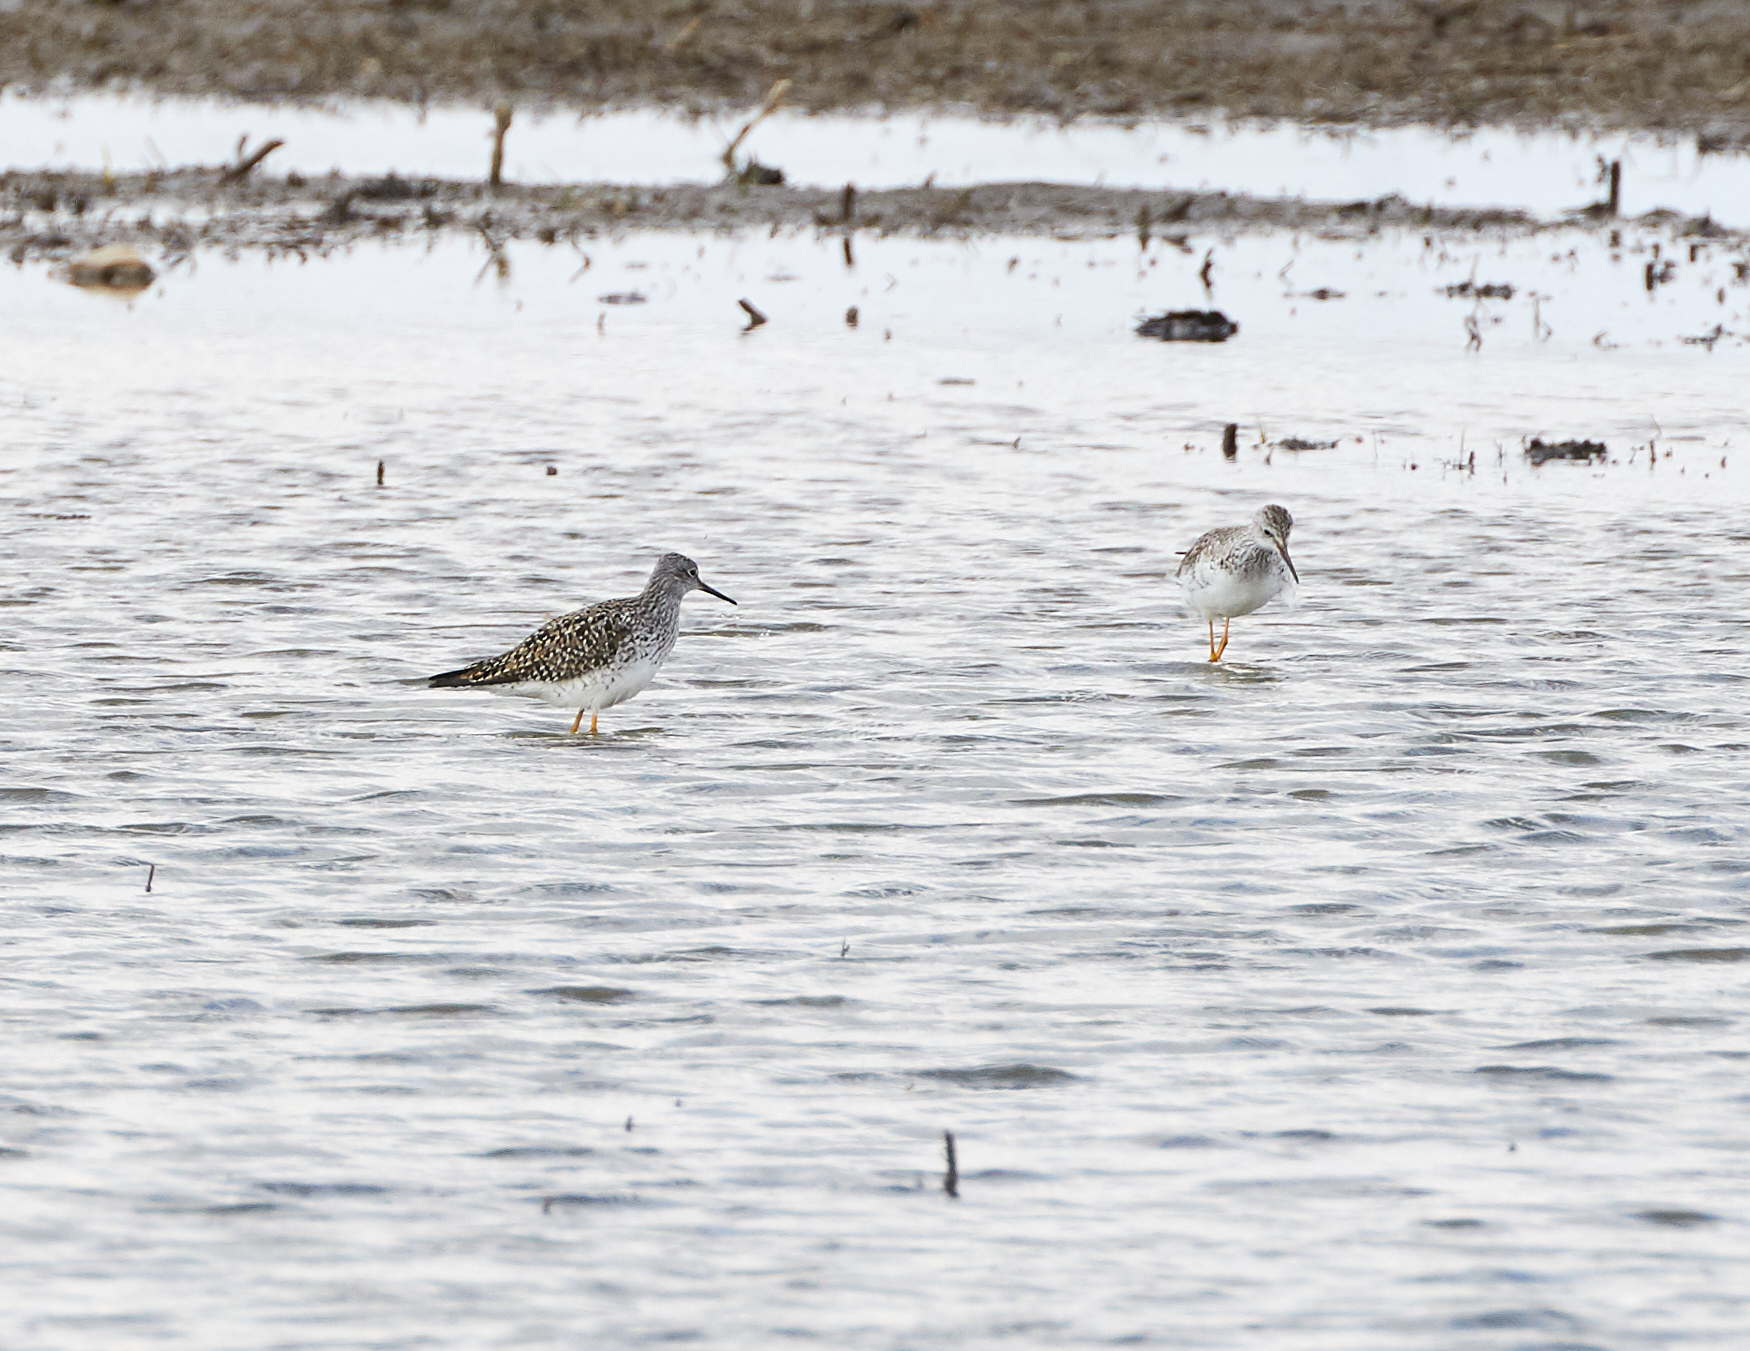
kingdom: Animalia
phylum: Chordata
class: Aves
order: Charadriiformes
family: Scolopacidae
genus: Tringa
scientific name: Tringa flavipes
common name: Lesser yellowlegs
